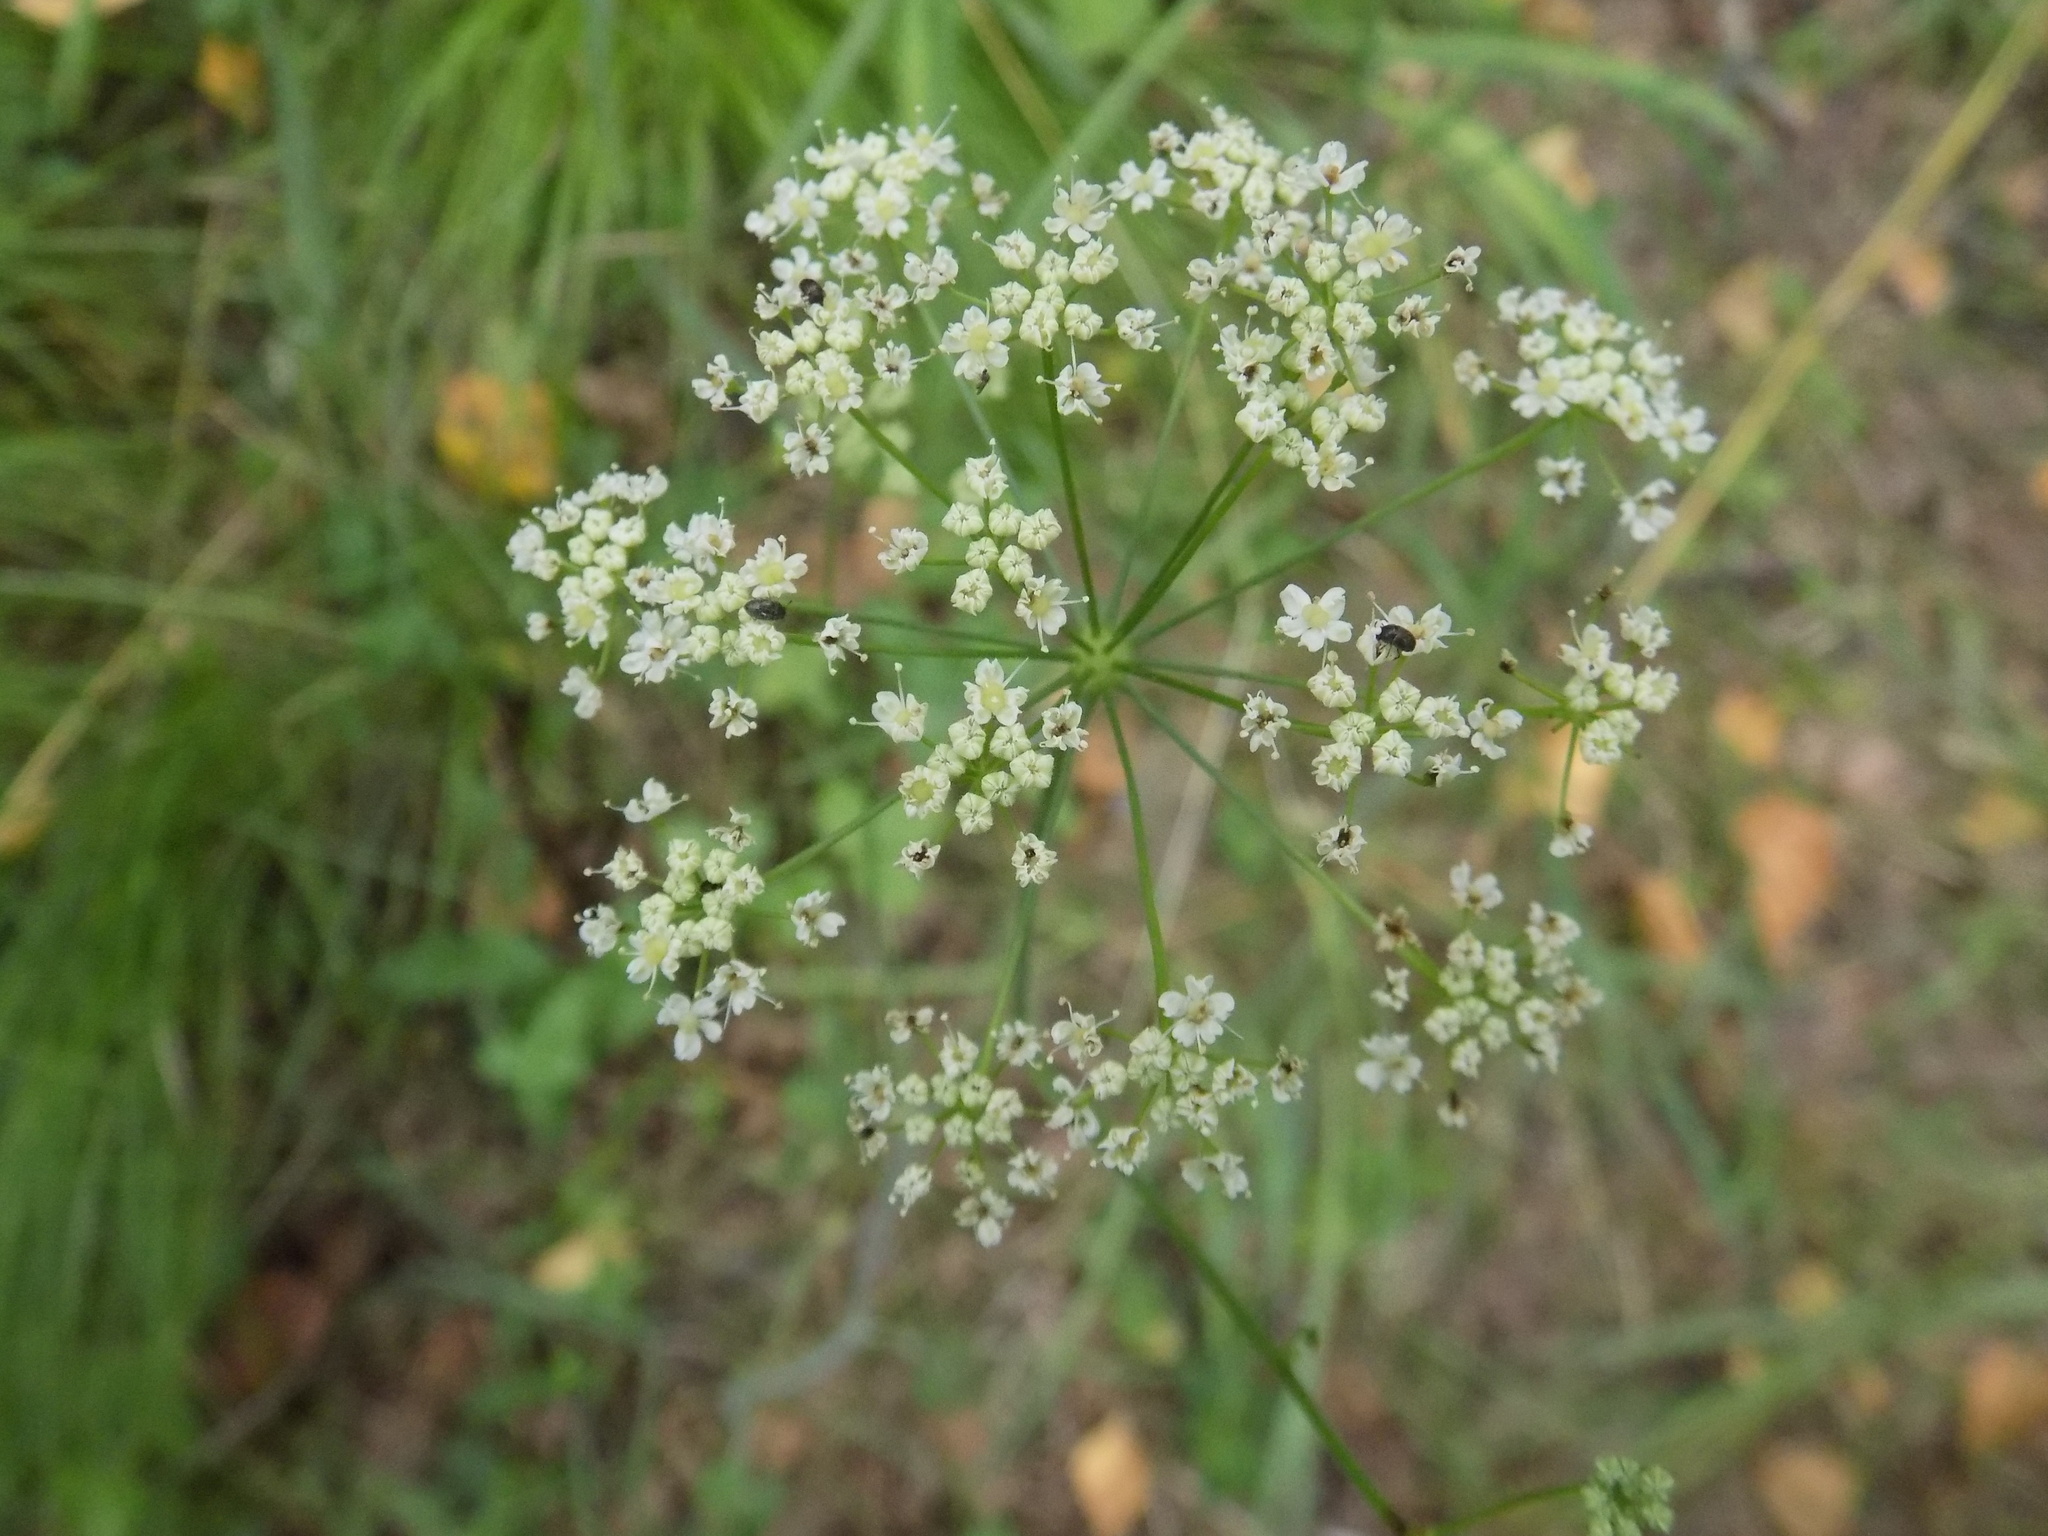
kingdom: Plantae
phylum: Tracheophyta
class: Magnoliopsida
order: Apiales
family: Apiaceae
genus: Pimpinella
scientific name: Pimpinella saxifraga
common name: Burnet-saxifrage
